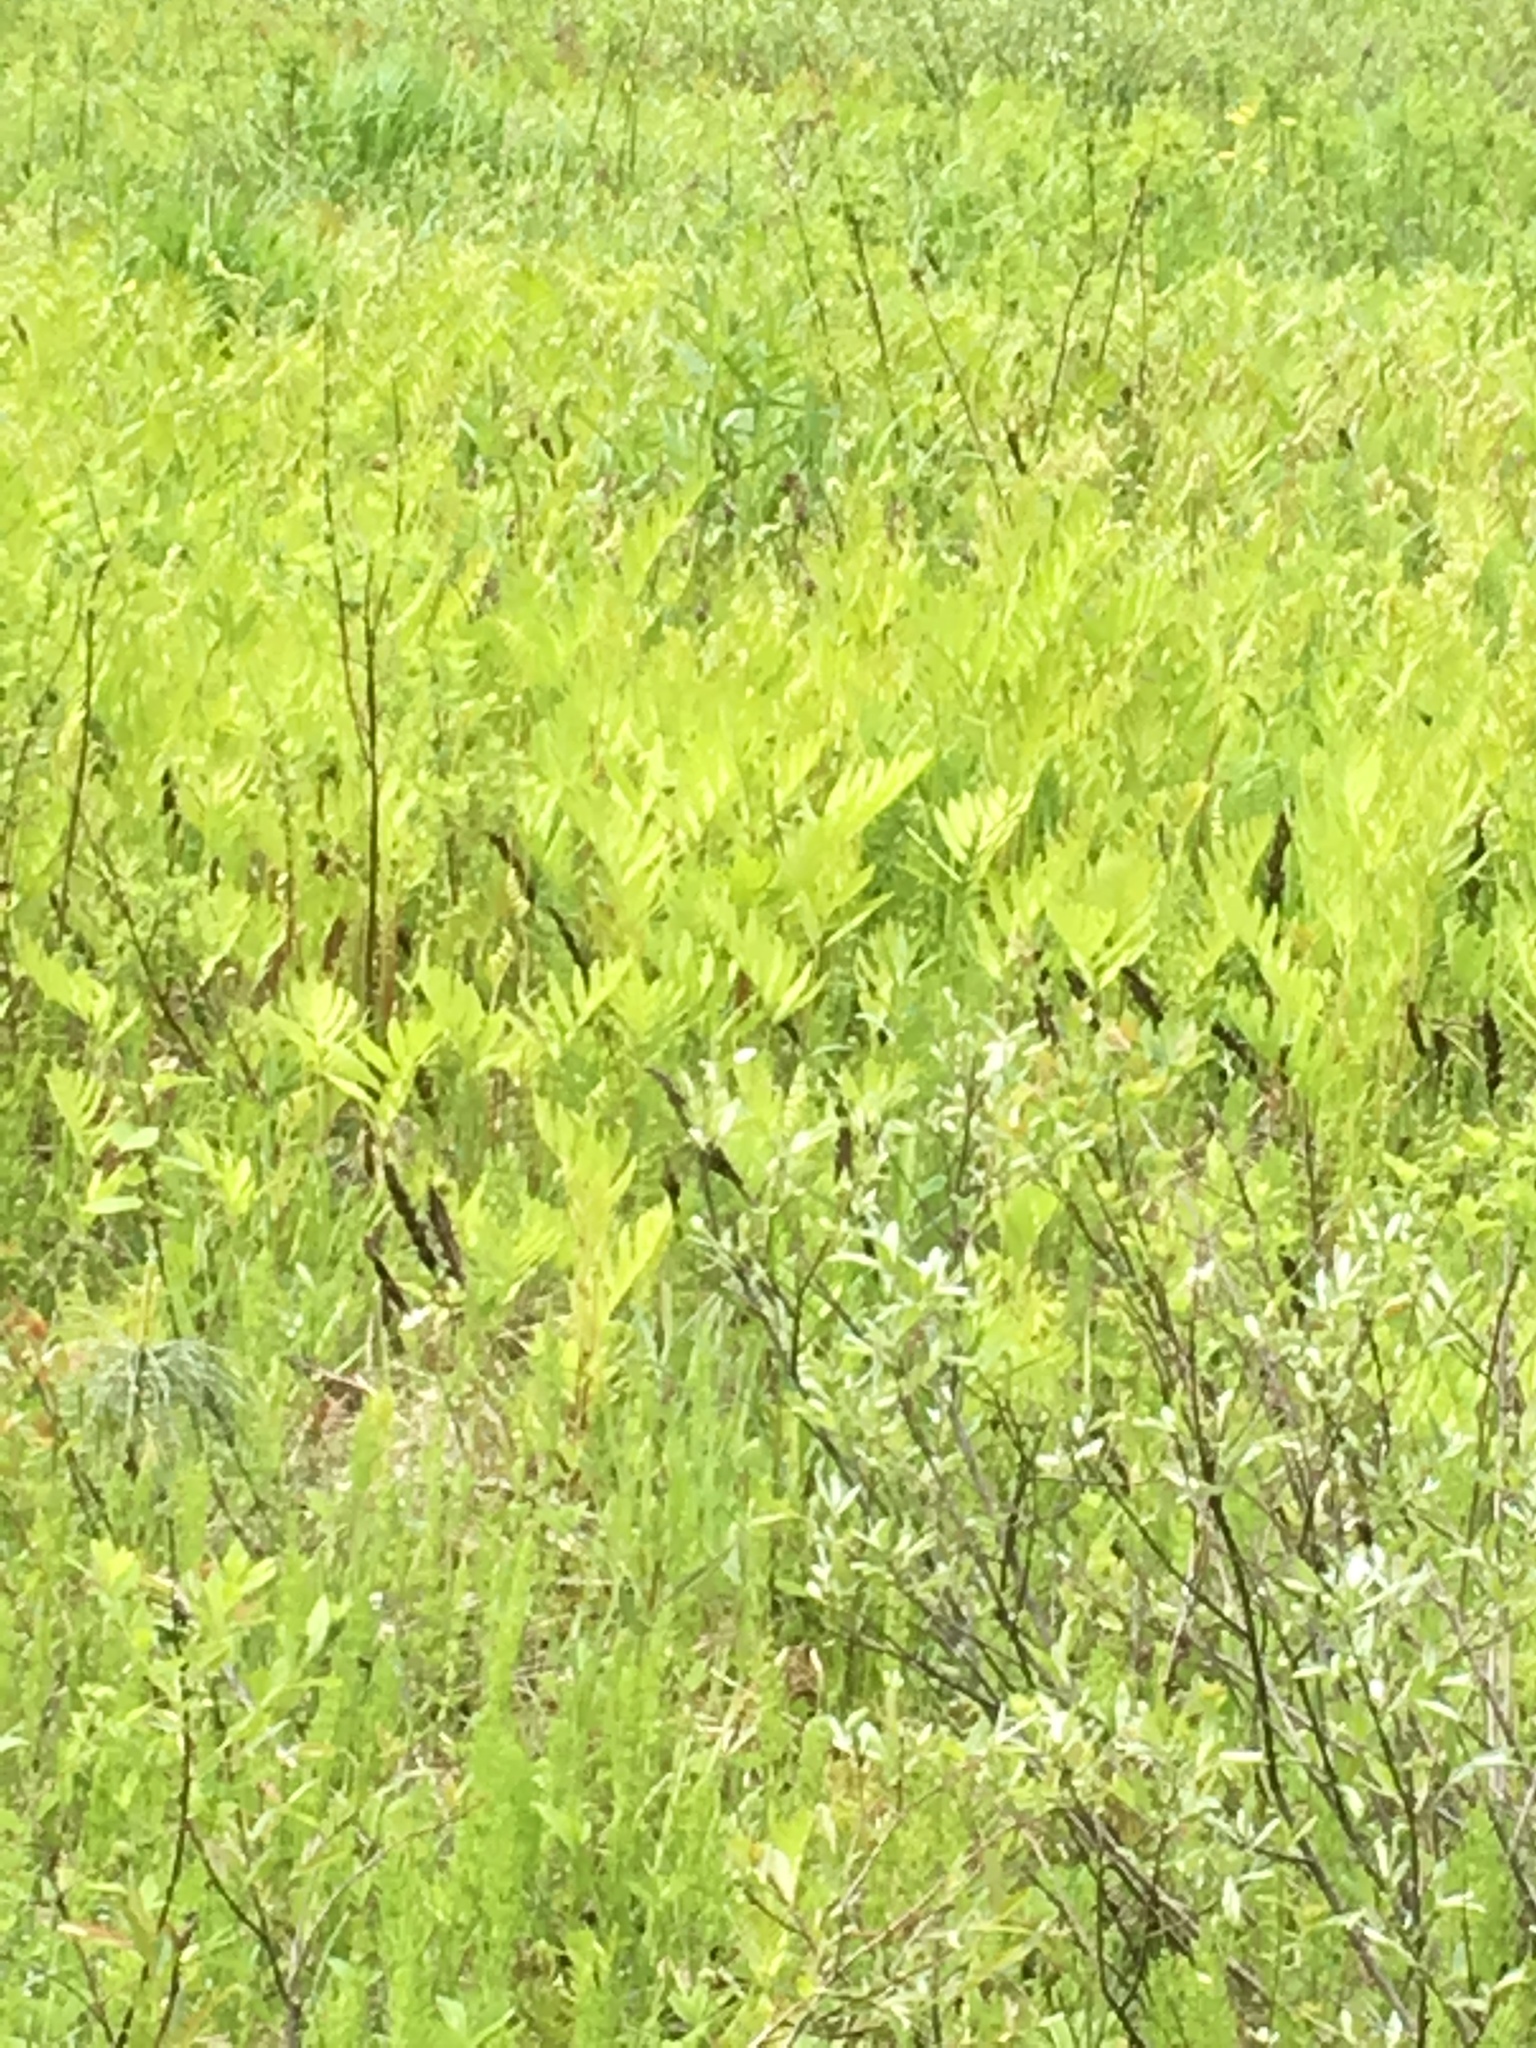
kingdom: Plantae
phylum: Tracheophyta
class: Polypodiopsida
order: Polypodiales
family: Onocleaceae
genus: Onoclea
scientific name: Onoclea sensibilis
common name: Sensitive fern
